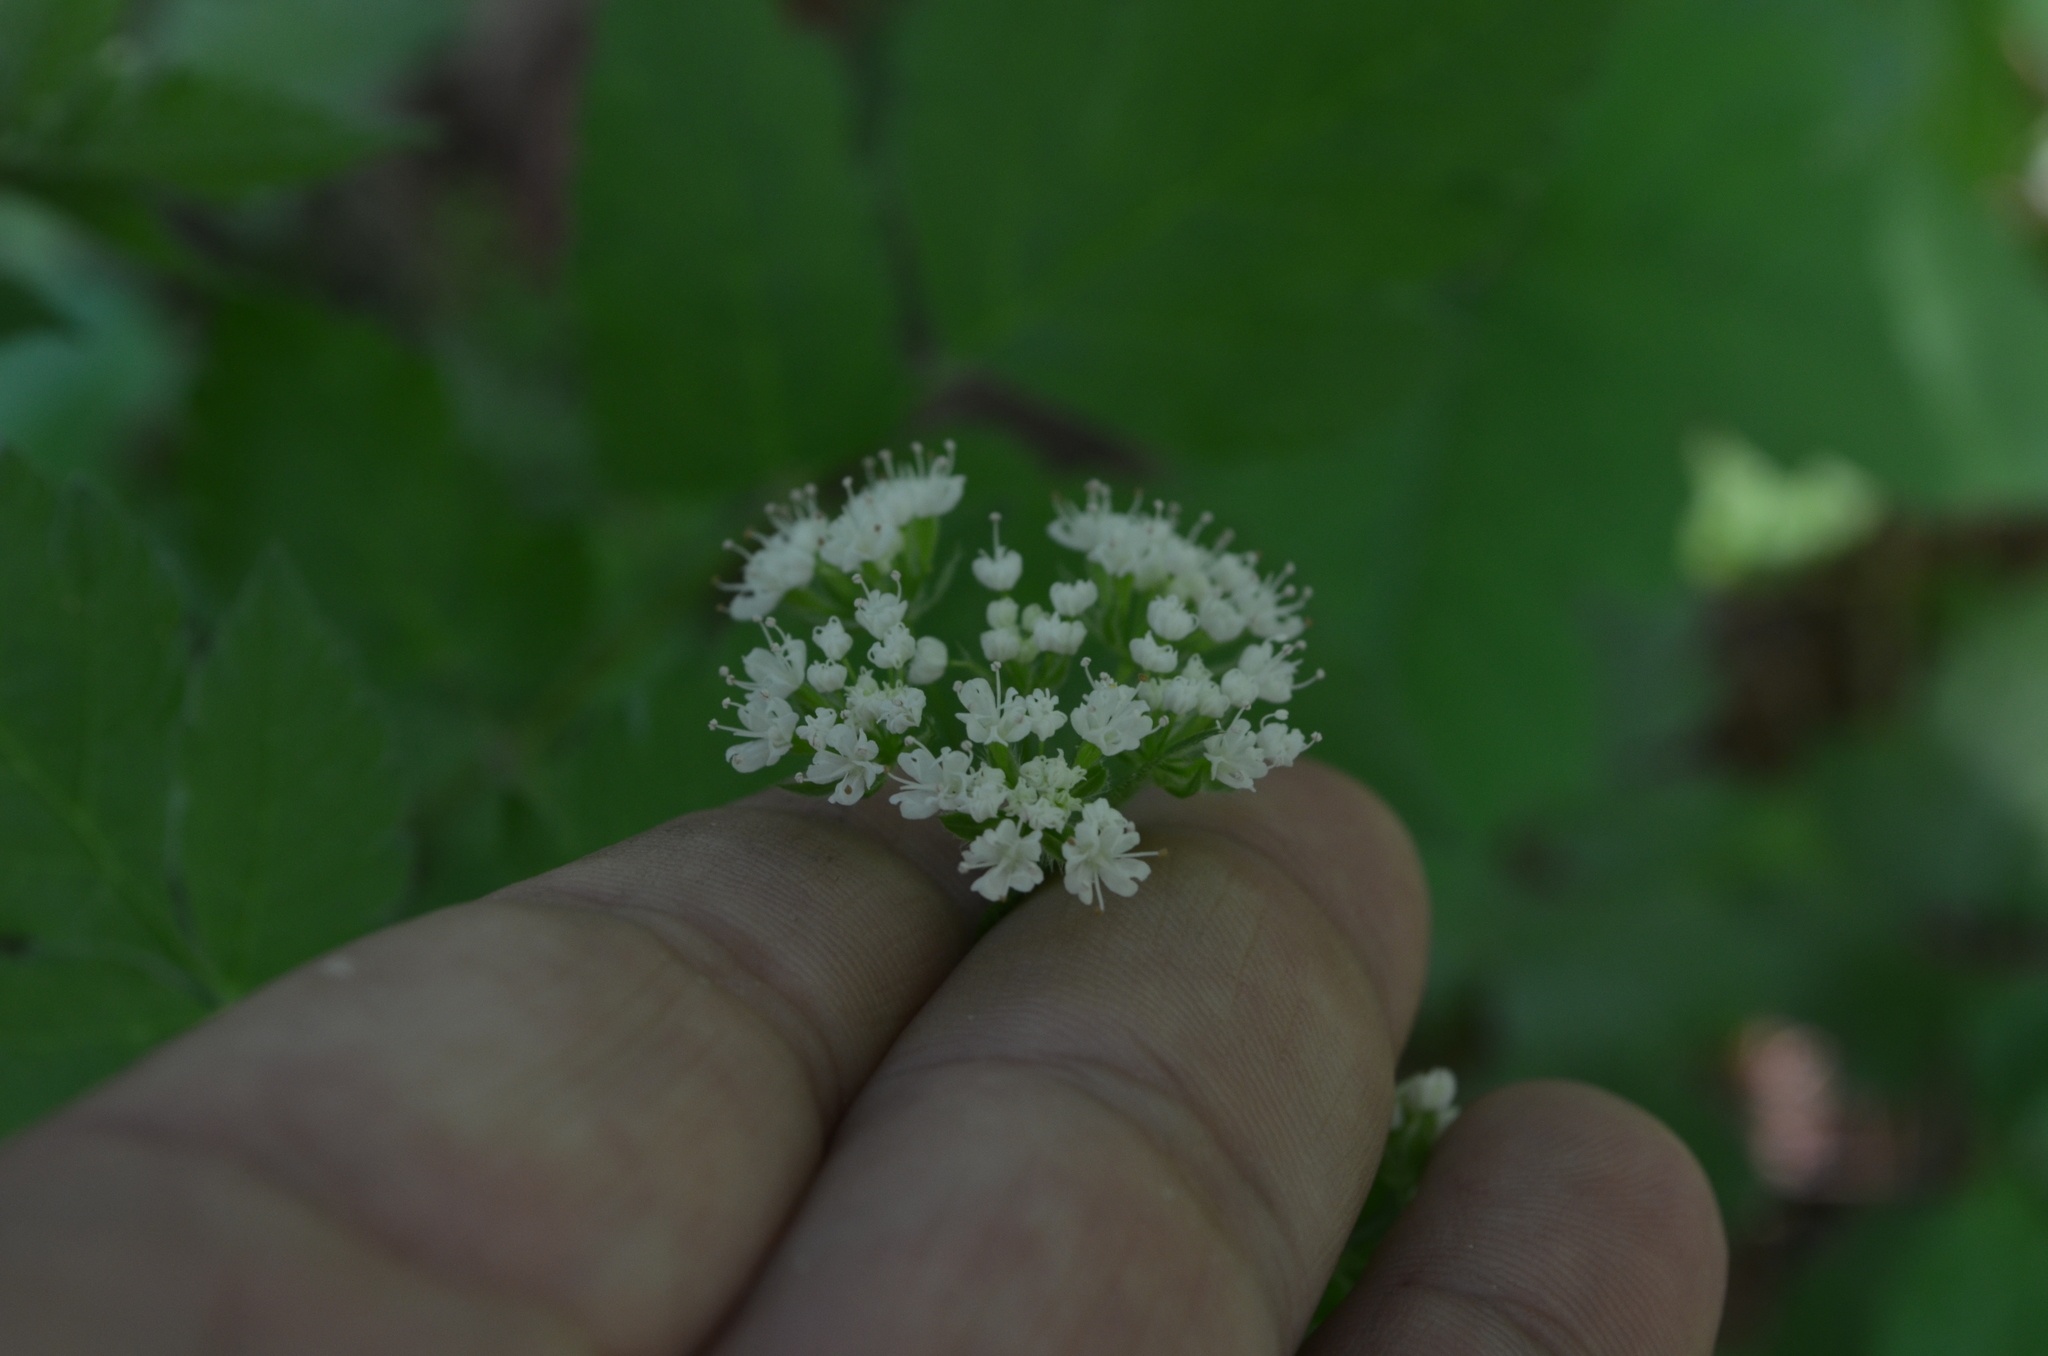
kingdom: Plantae
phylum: Tracheophyta
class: Magnoliopsida
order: Apiales
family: Apiaceae
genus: Osmorhiza
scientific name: Osmorhiza longistylis
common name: Smooth sweet cicely
